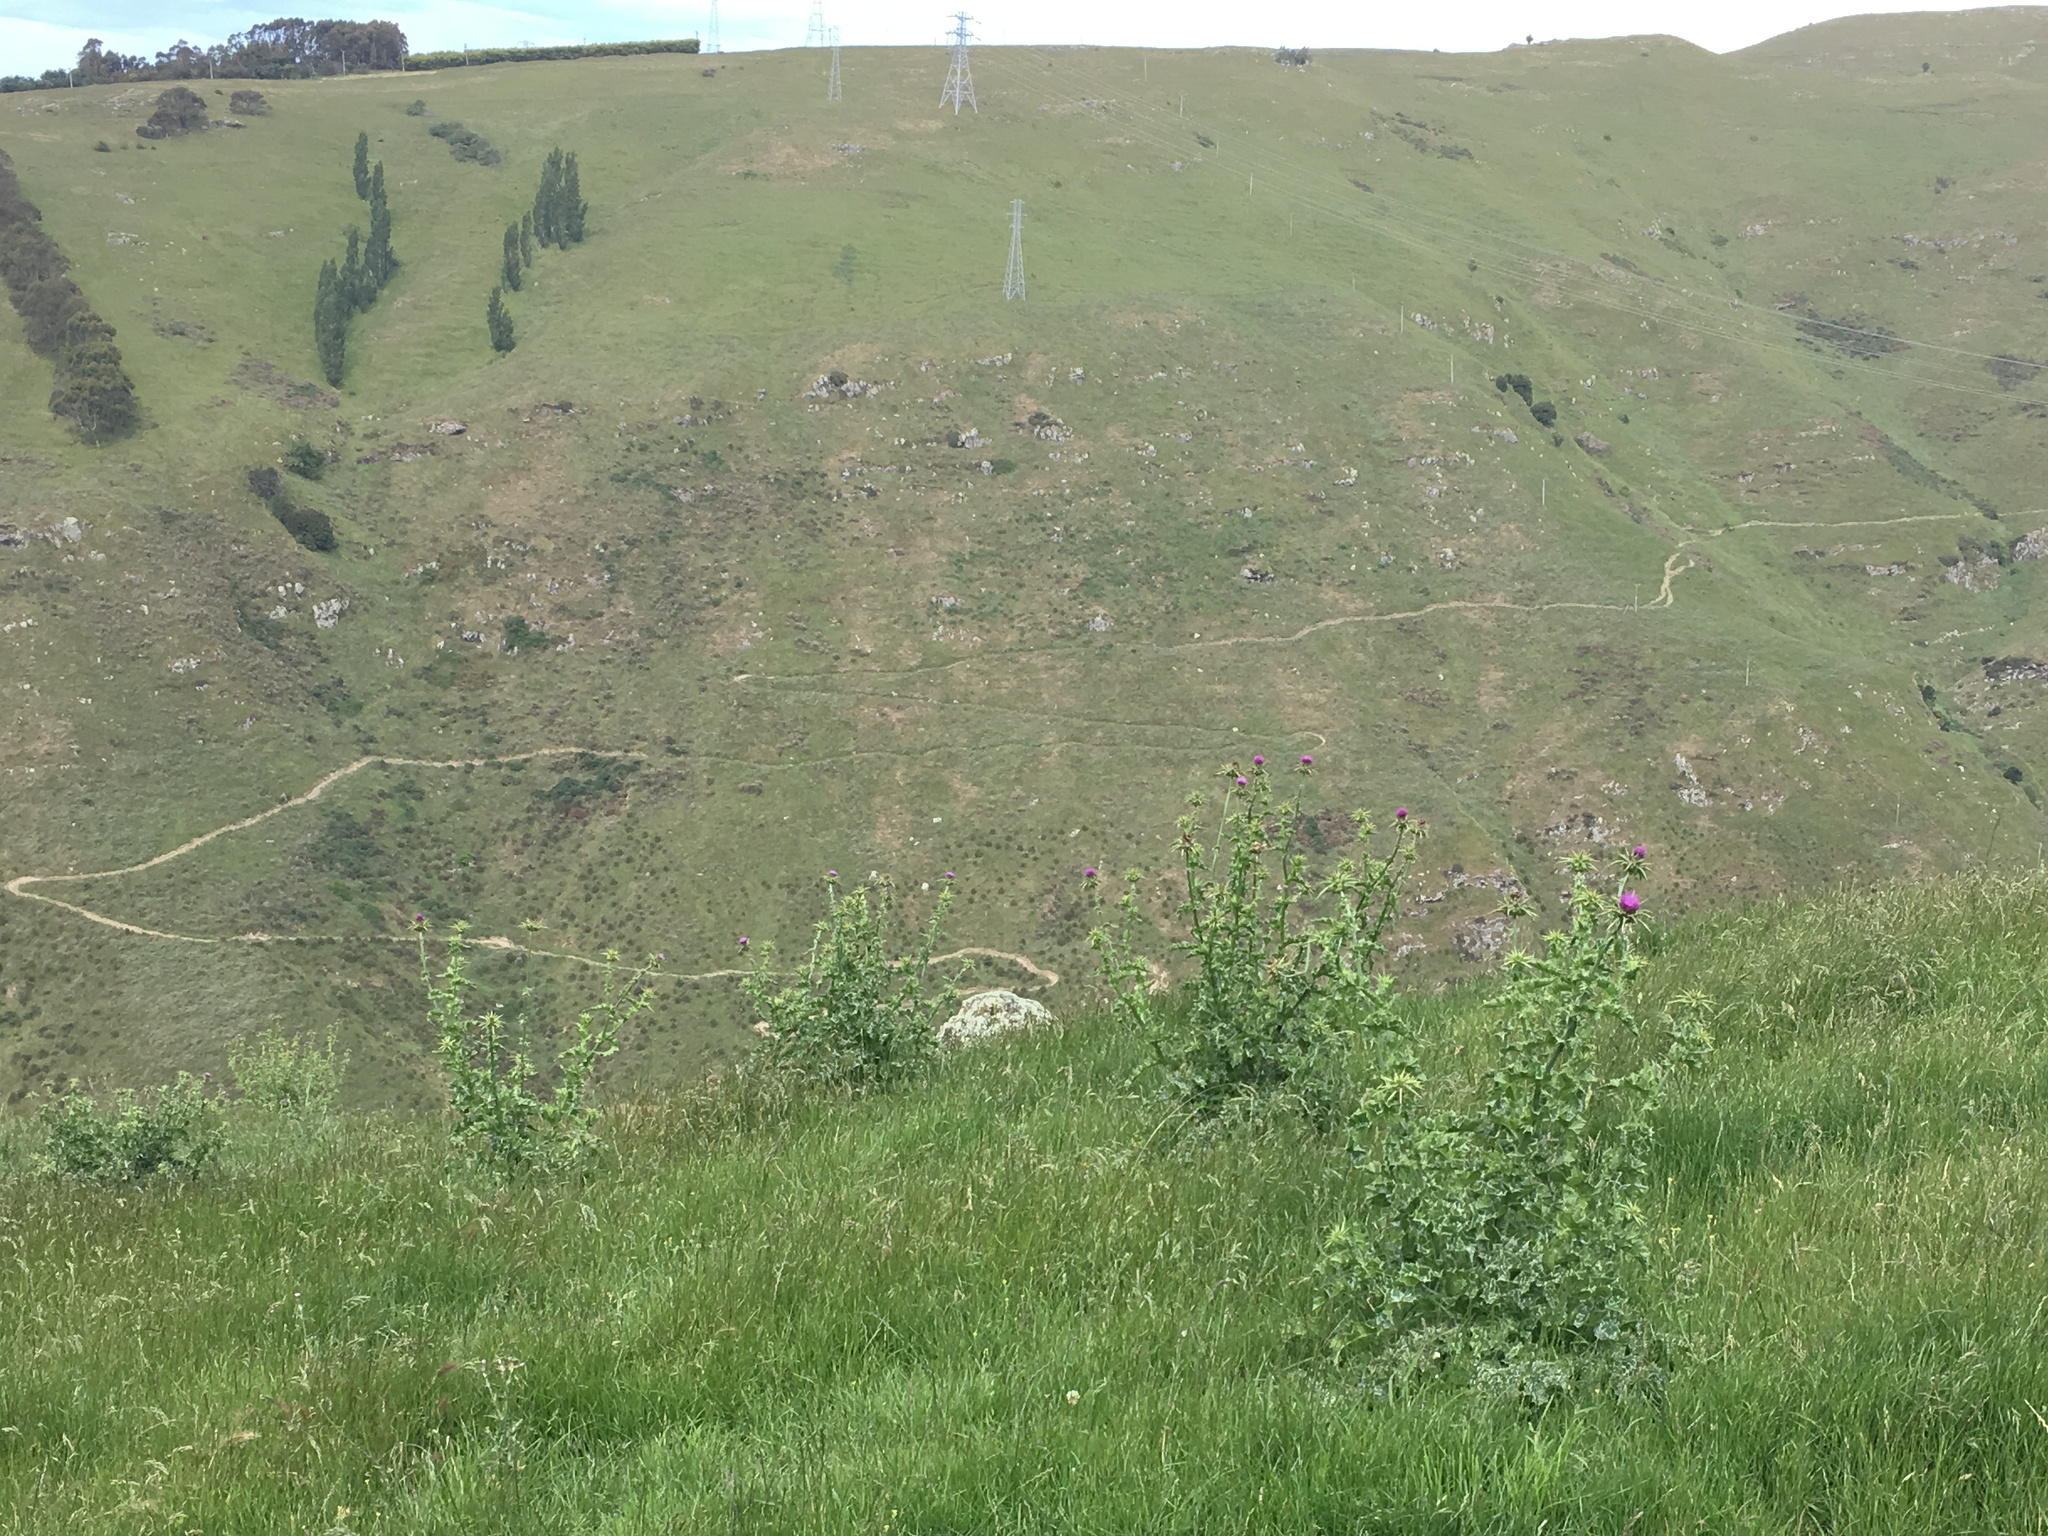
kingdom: Plantae
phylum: Tracheophyta
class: Magnoliopsida
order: Asterales
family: Asteraceae
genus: Silybum
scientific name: Silybum marianum
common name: Milk thistle
